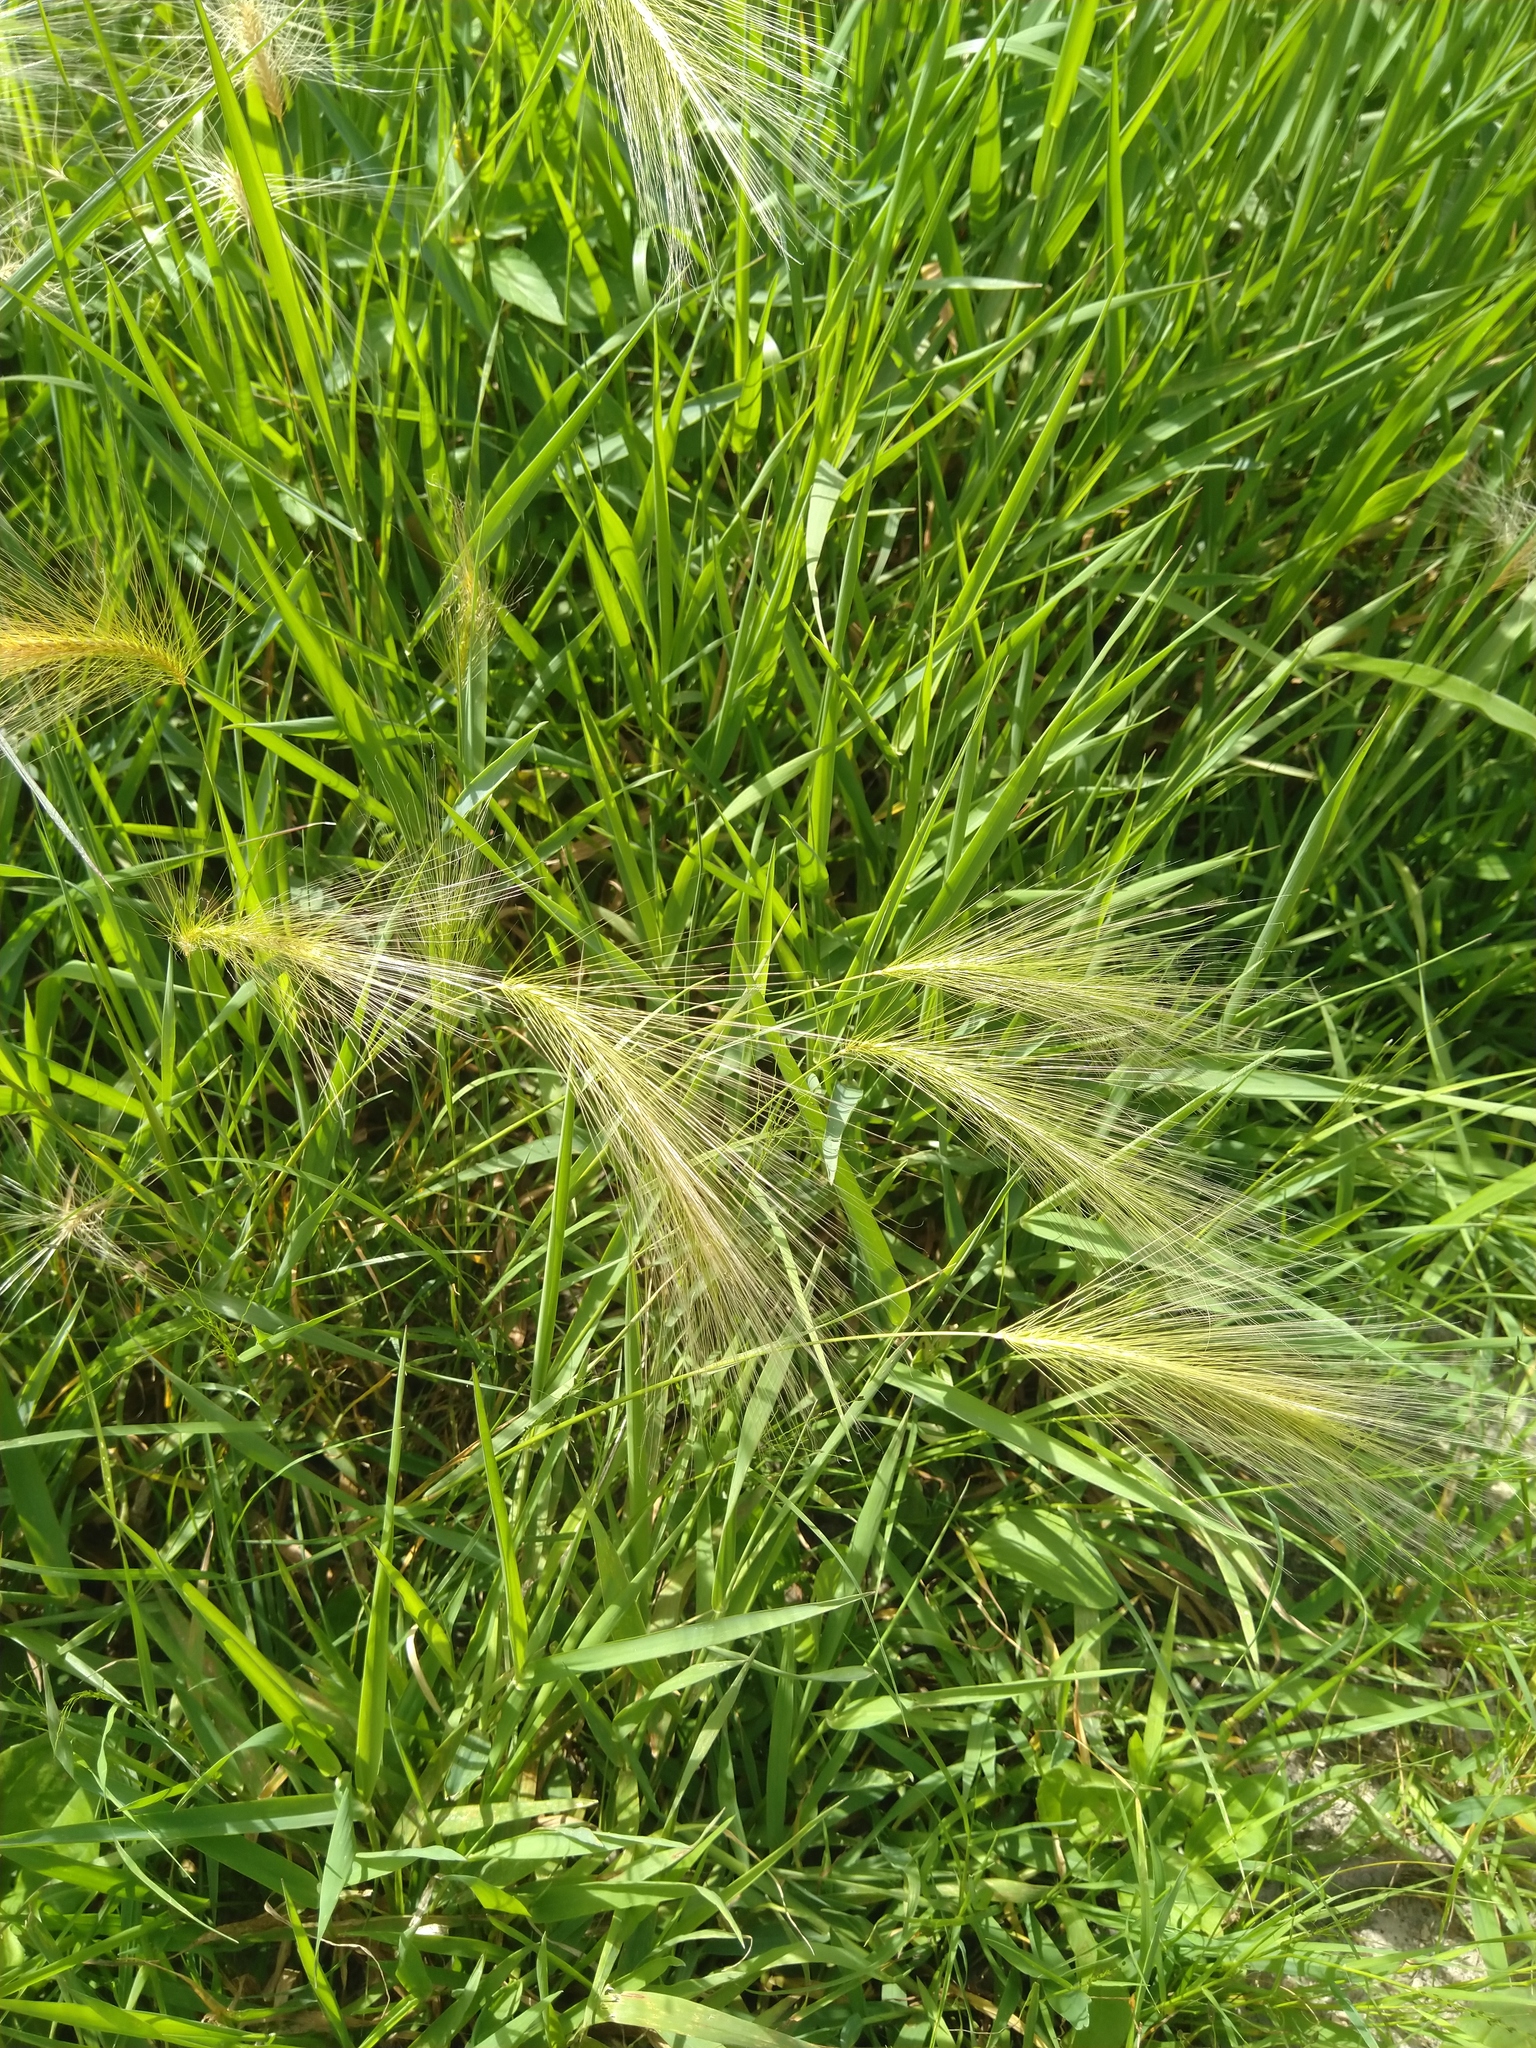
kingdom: Plantae
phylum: Tracheophyta
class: Liliopsida
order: Poales
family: Poaceae
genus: Hordeum
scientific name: Hordeum jubatum
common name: Foxtail barley
